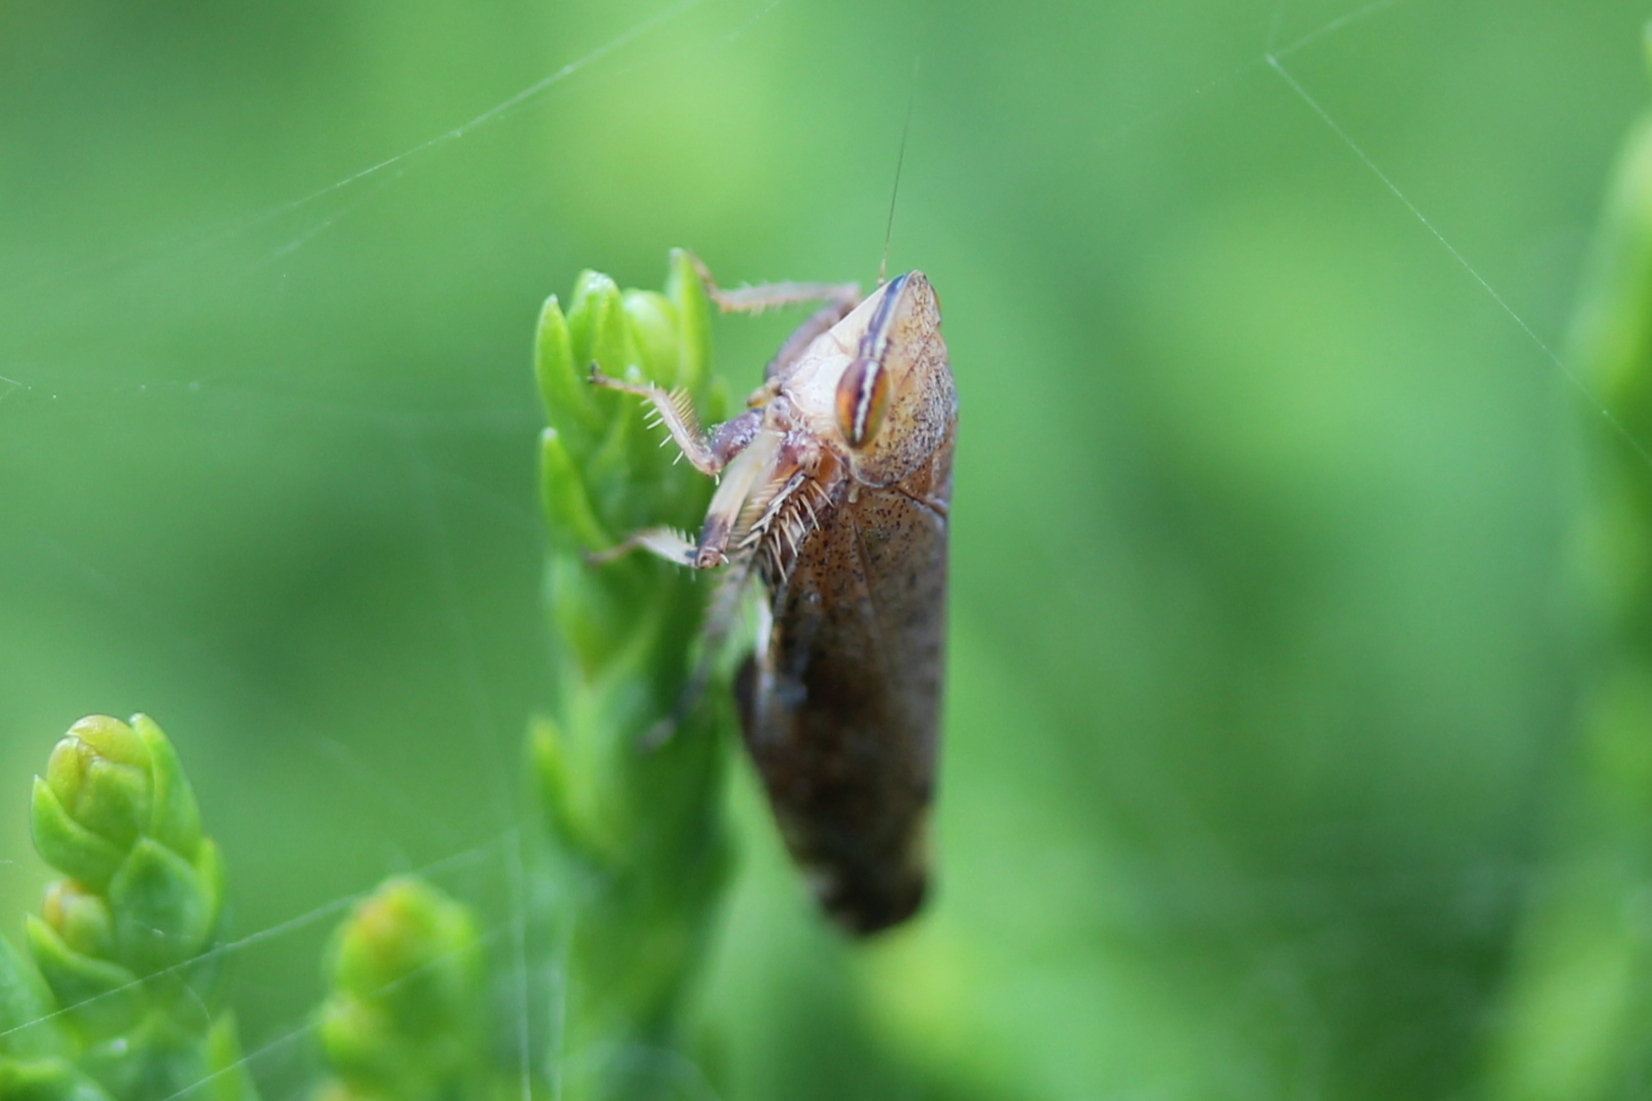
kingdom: Animalia
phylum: Arthropoda
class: Insecta
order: Hemiptera
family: Cicadellidae
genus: Fieberiella
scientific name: Fieberiella florii
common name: Flor’s leafhopper
